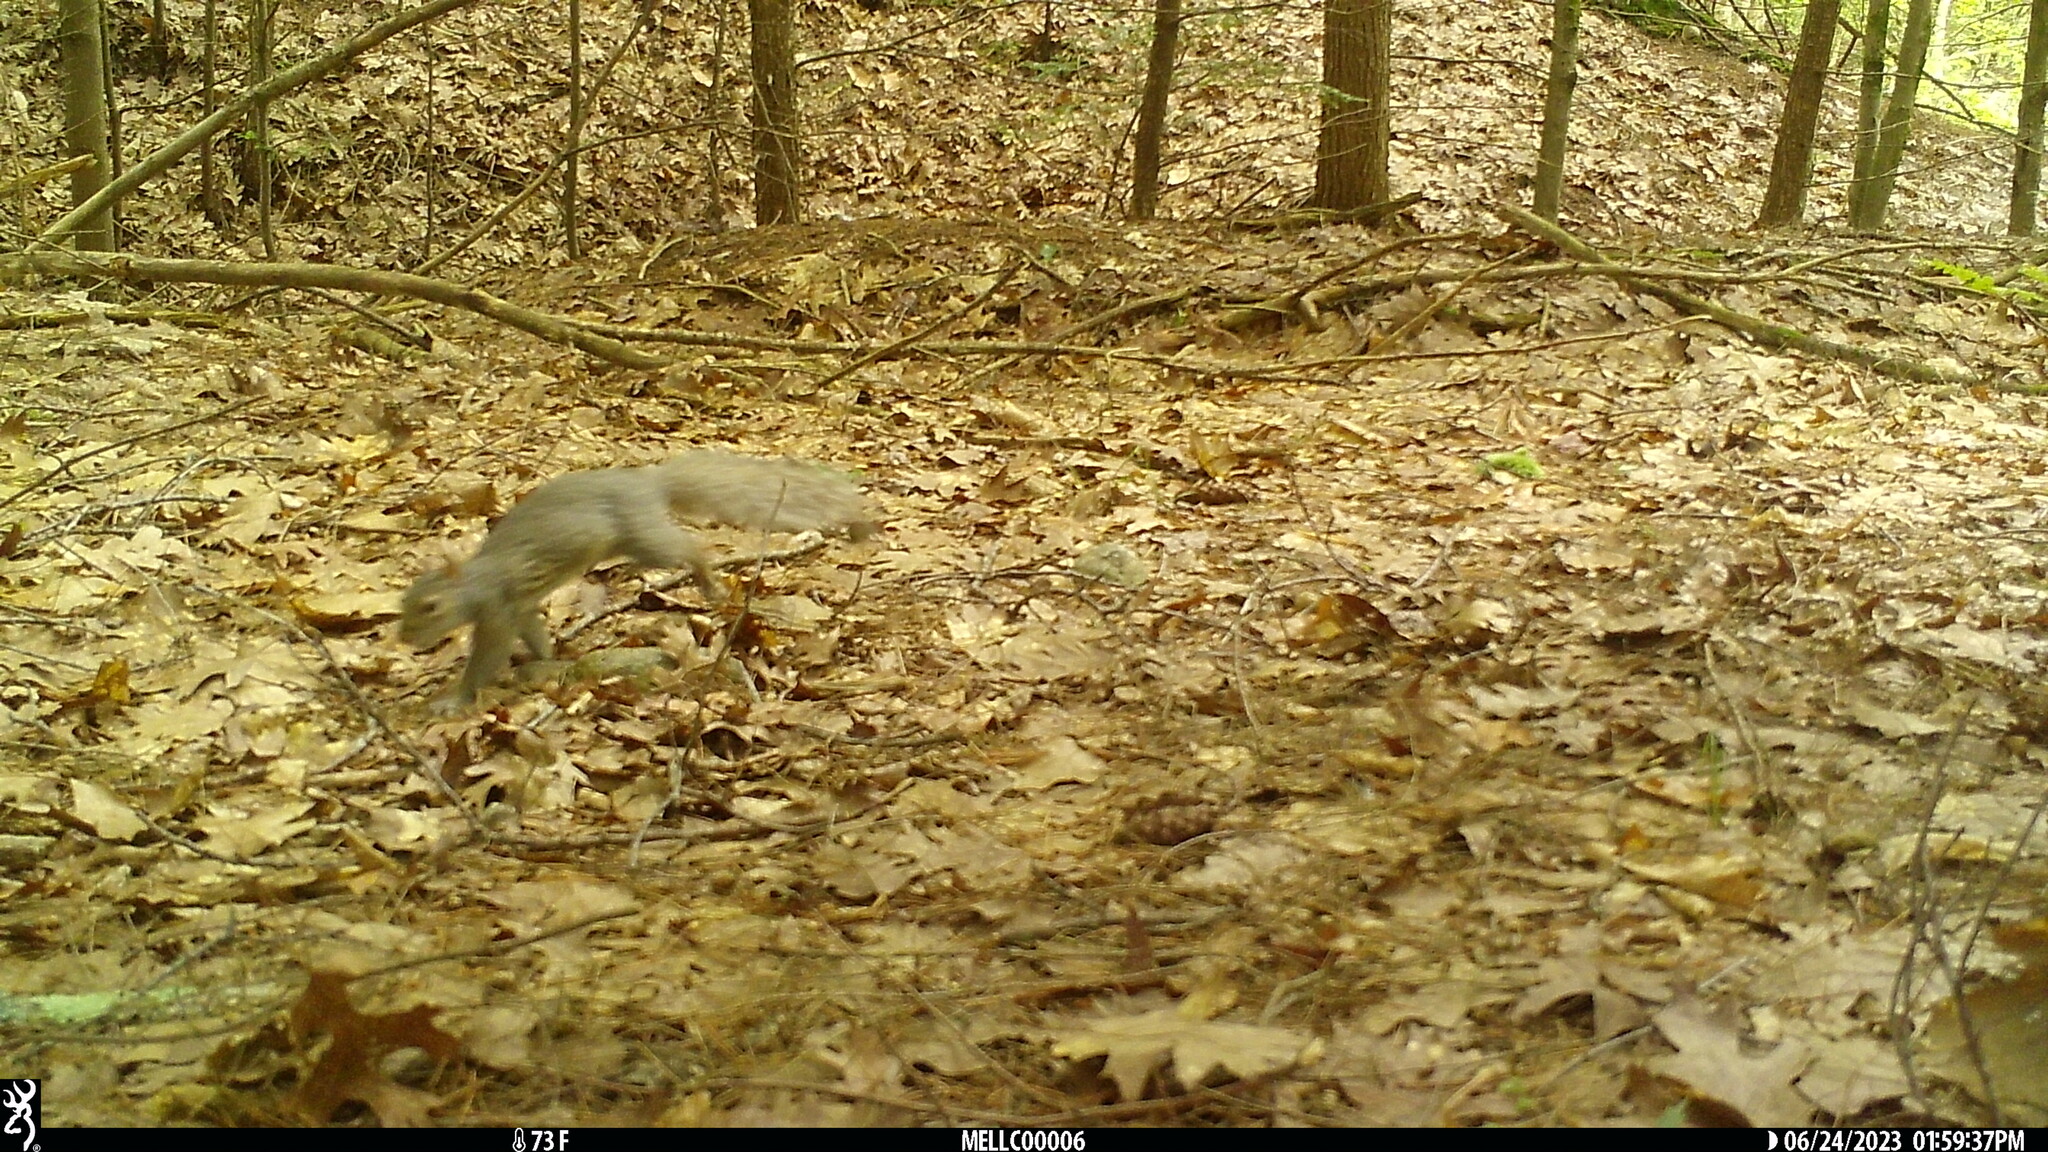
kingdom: Animalia
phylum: Chordata
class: Mammalia
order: Rodentia
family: Sciuridae
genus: Sciurus
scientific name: Sciurus carolinensis
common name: Eastern gray squirrel
